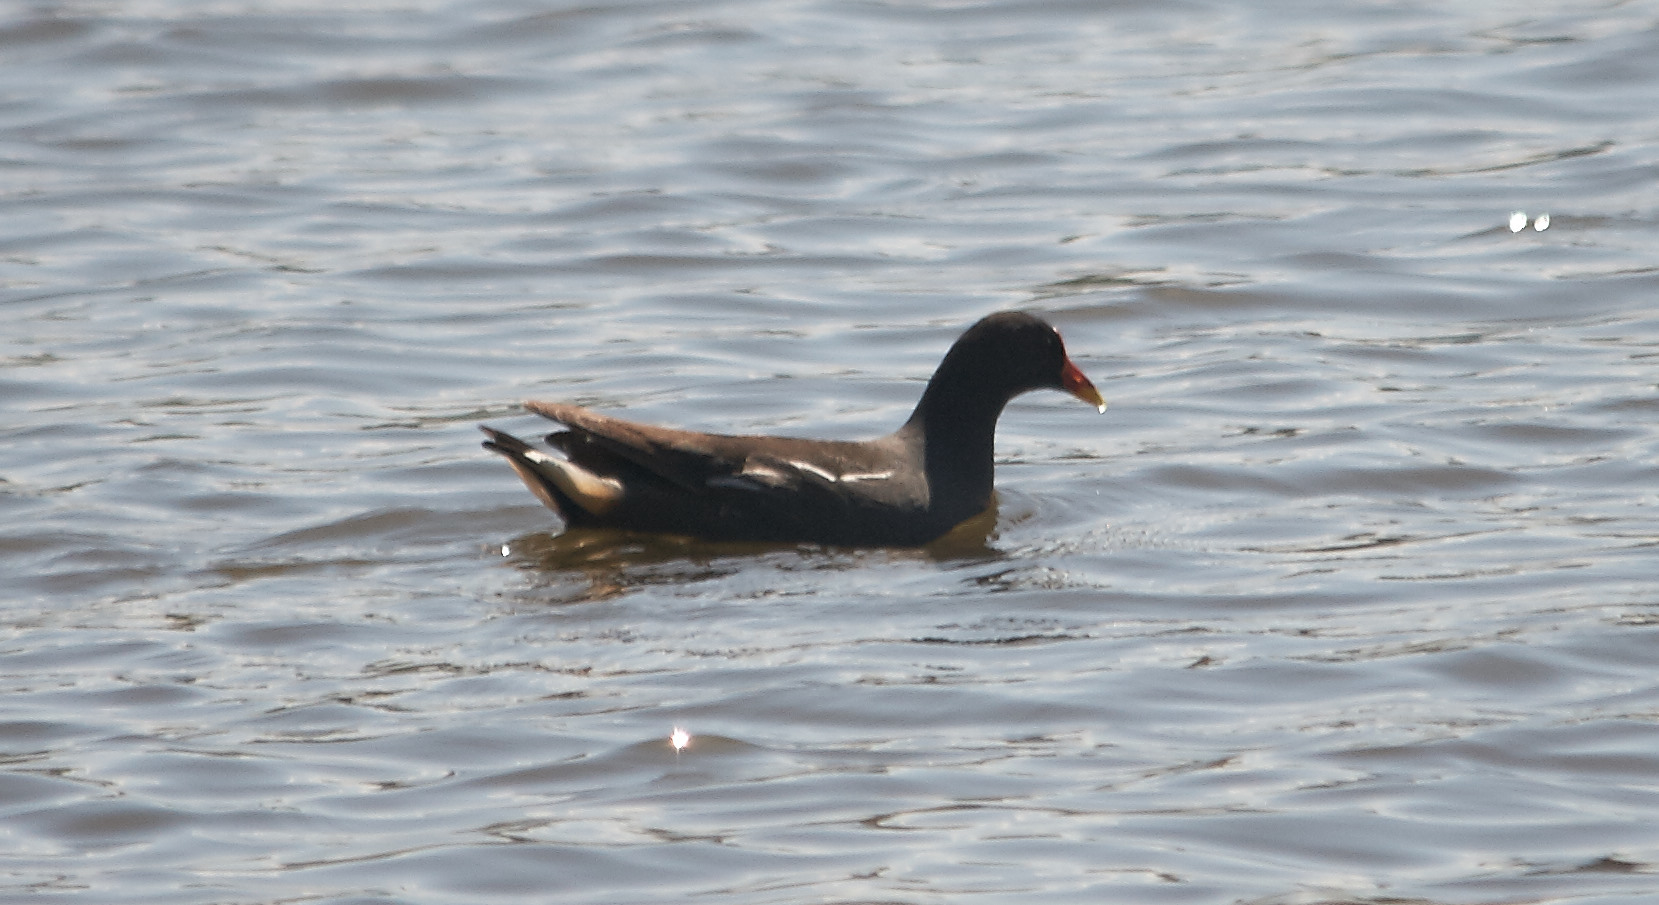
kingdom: Animalia
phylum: Chordata
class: Aves
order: Gruiformes
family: Rallidae
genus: Gallinula
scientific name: Gallinula chloropus
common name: Common moorhen
